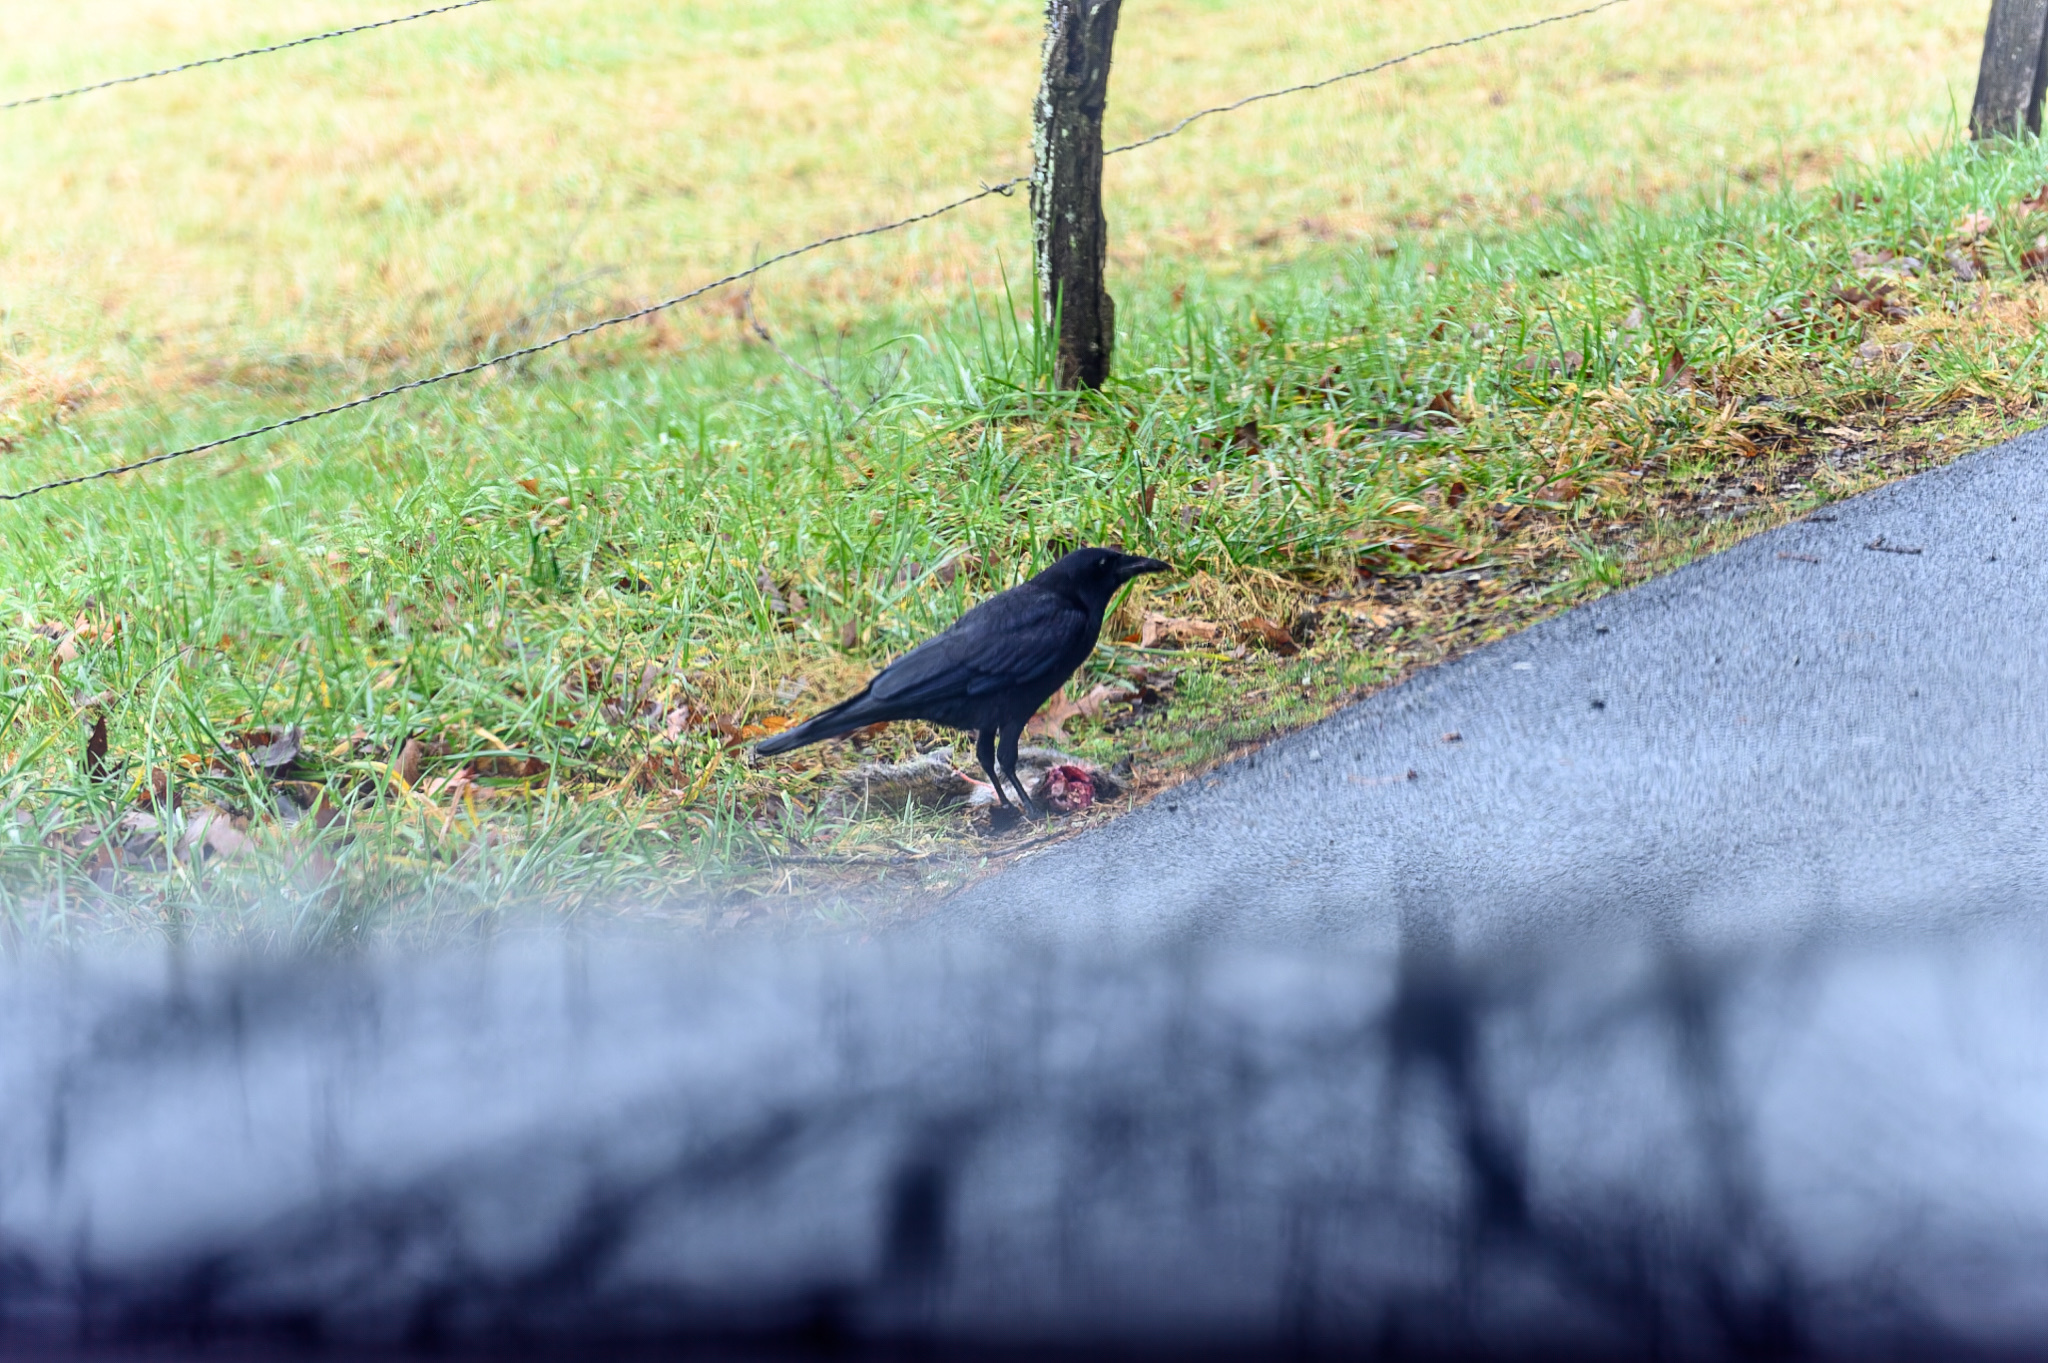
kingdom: Animalia
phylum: Chordata
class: Aves
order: Passeriformes
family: Corvidae
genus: Corvus
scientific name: Corvus brachyrhynchos
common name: American crow
